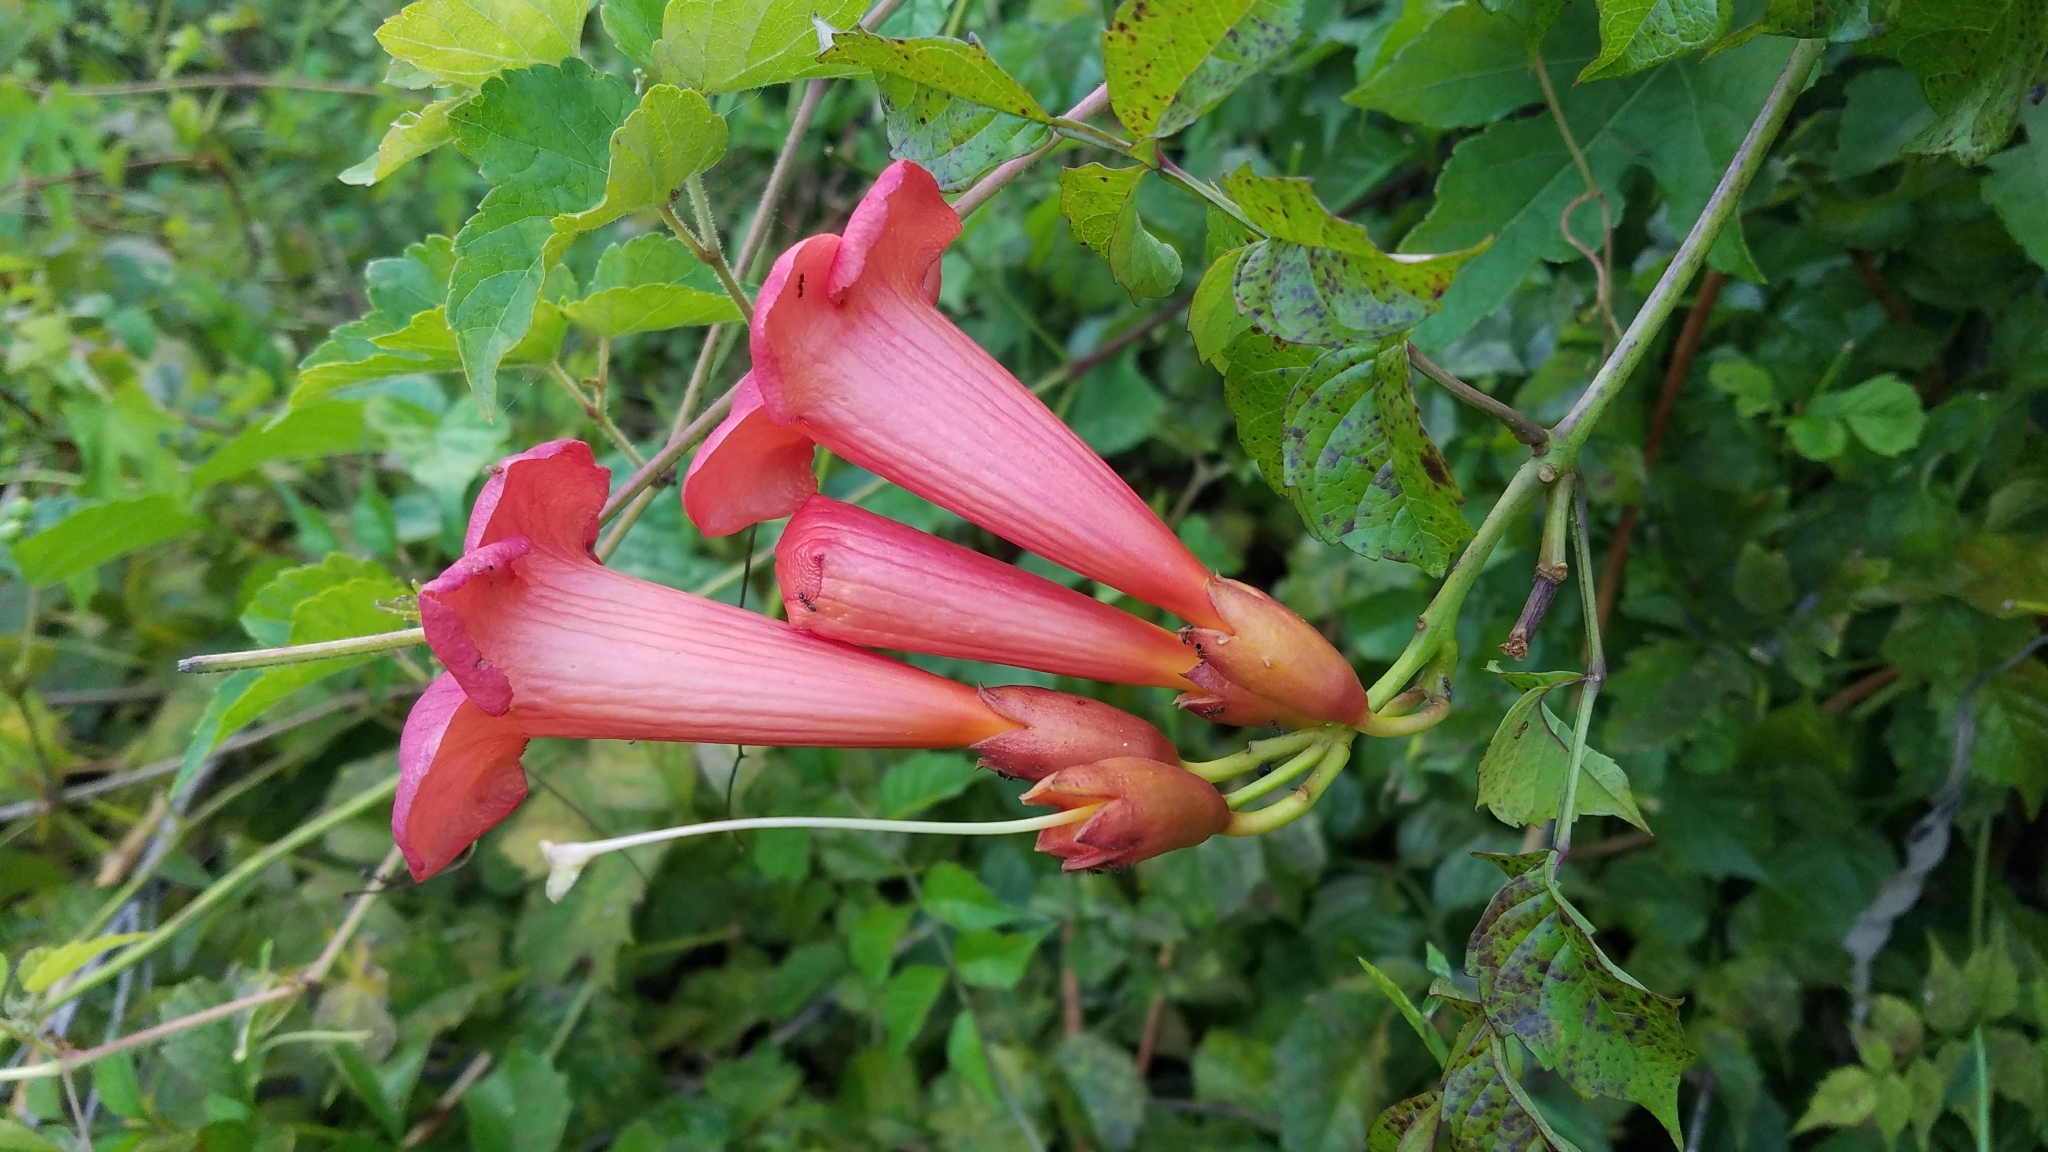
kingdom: Plantae
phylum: Tracheophyta
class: Magnoliopsida
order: Lamiales
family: Bignoniaceae
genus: Campsis
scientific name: Campsis radicans
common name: Trumpet-creeper
